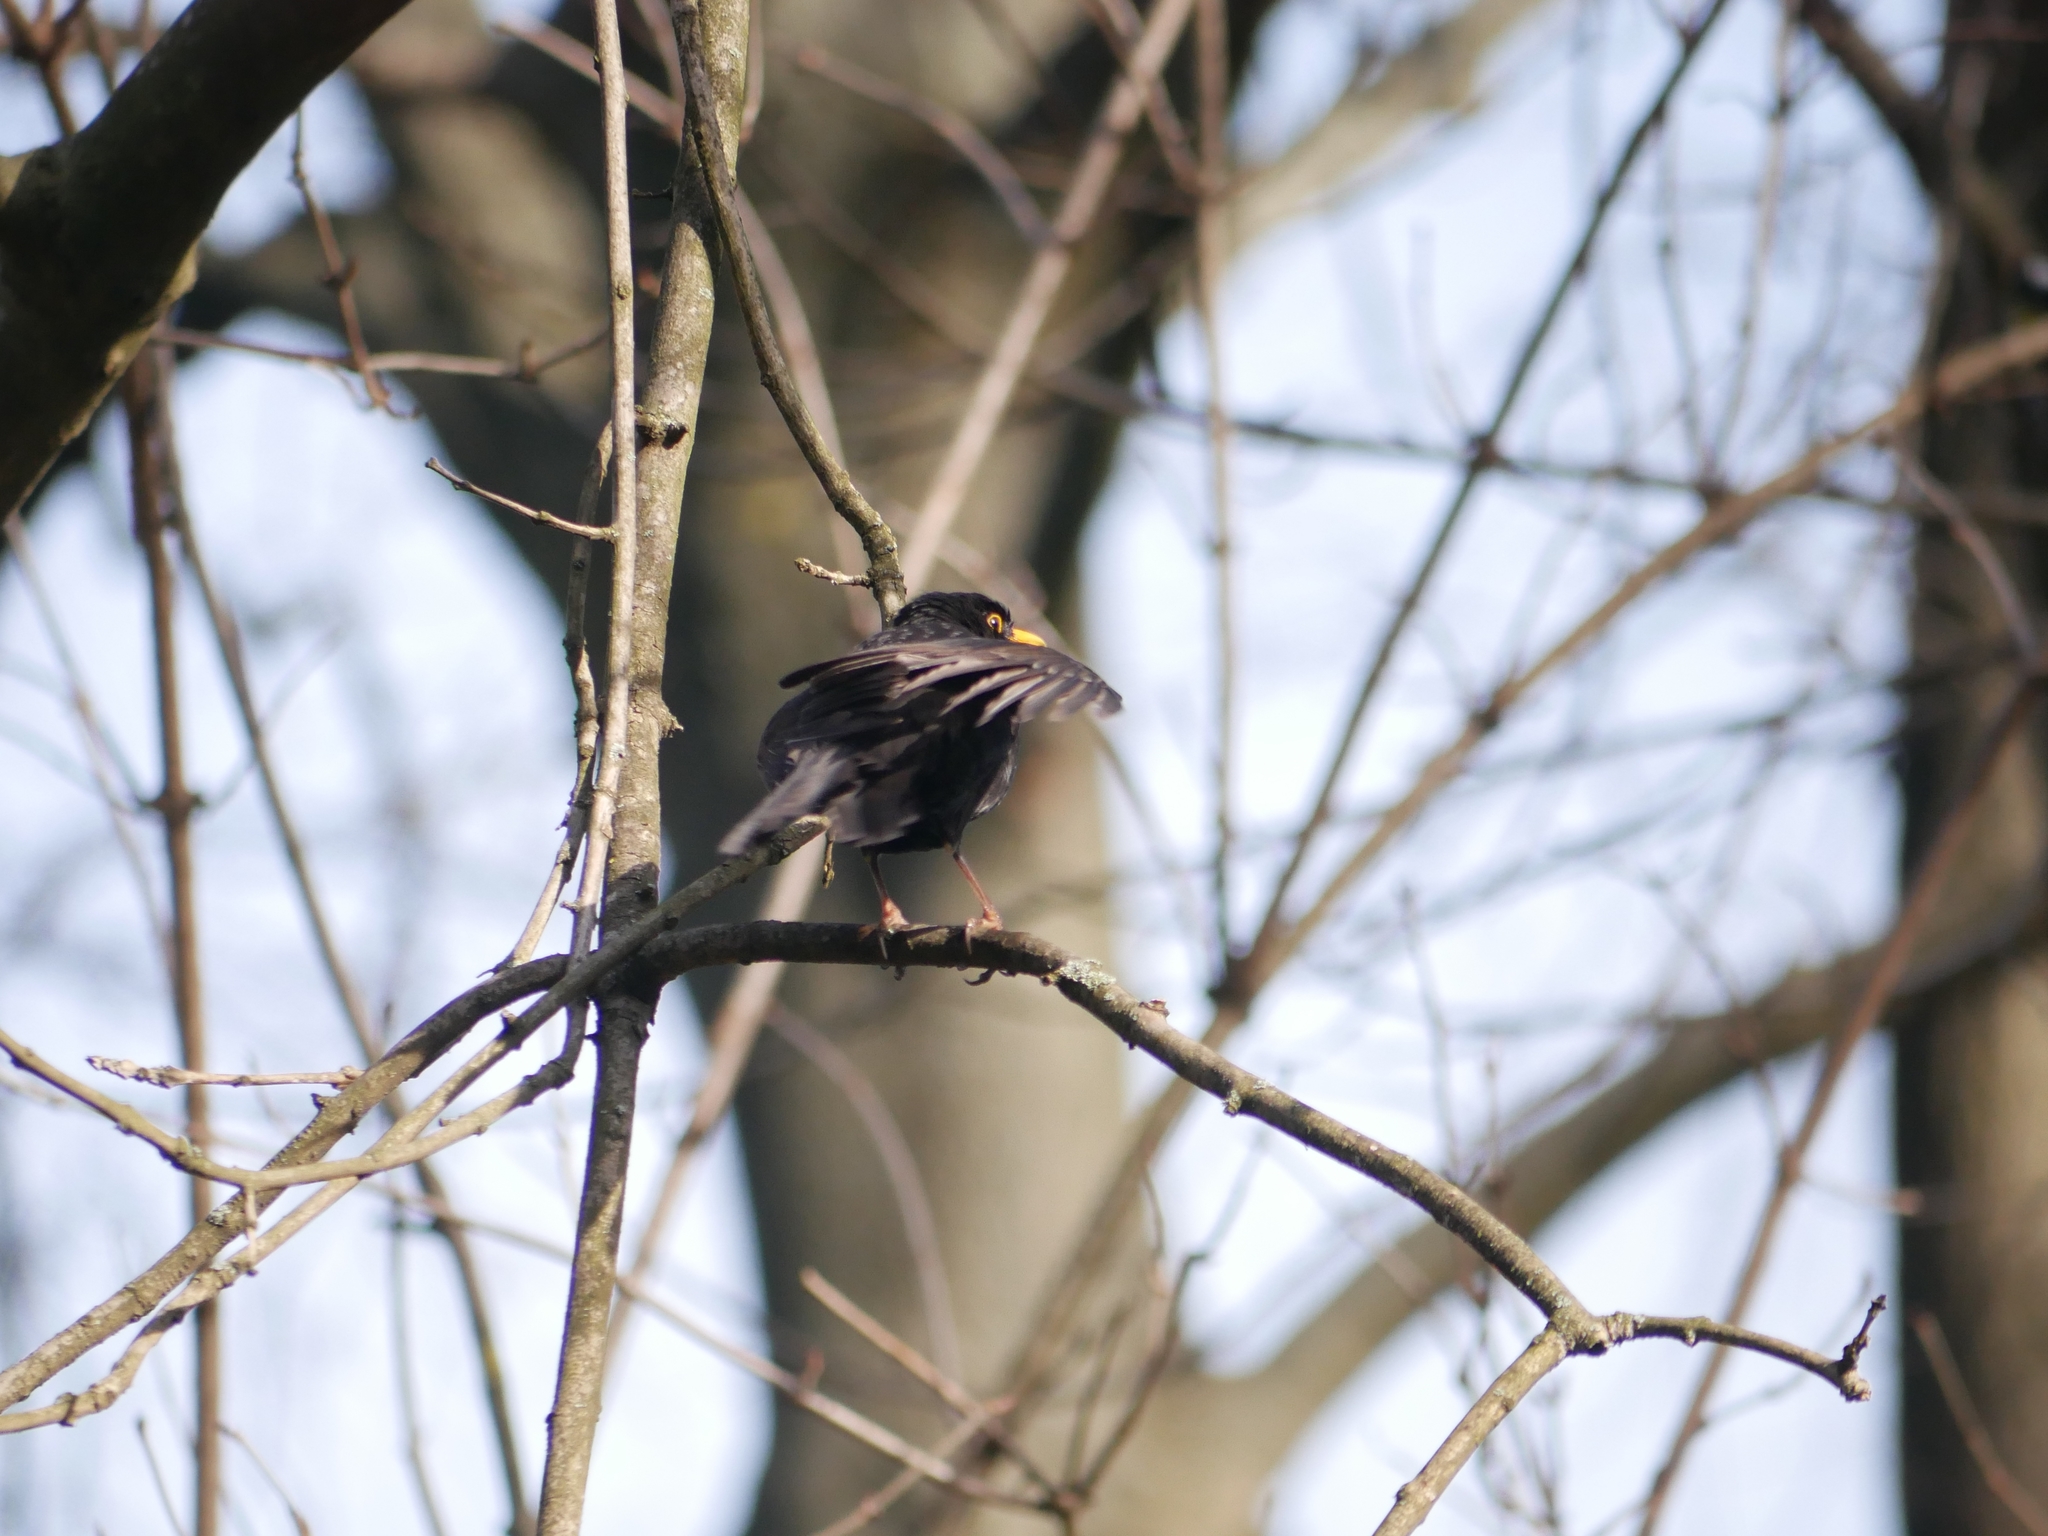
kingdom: Animalia
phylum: Chordata
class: Aves
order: Passeriformes
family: Turdidae
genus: Turdus
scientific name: Turdus merula
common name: Common blackbird
